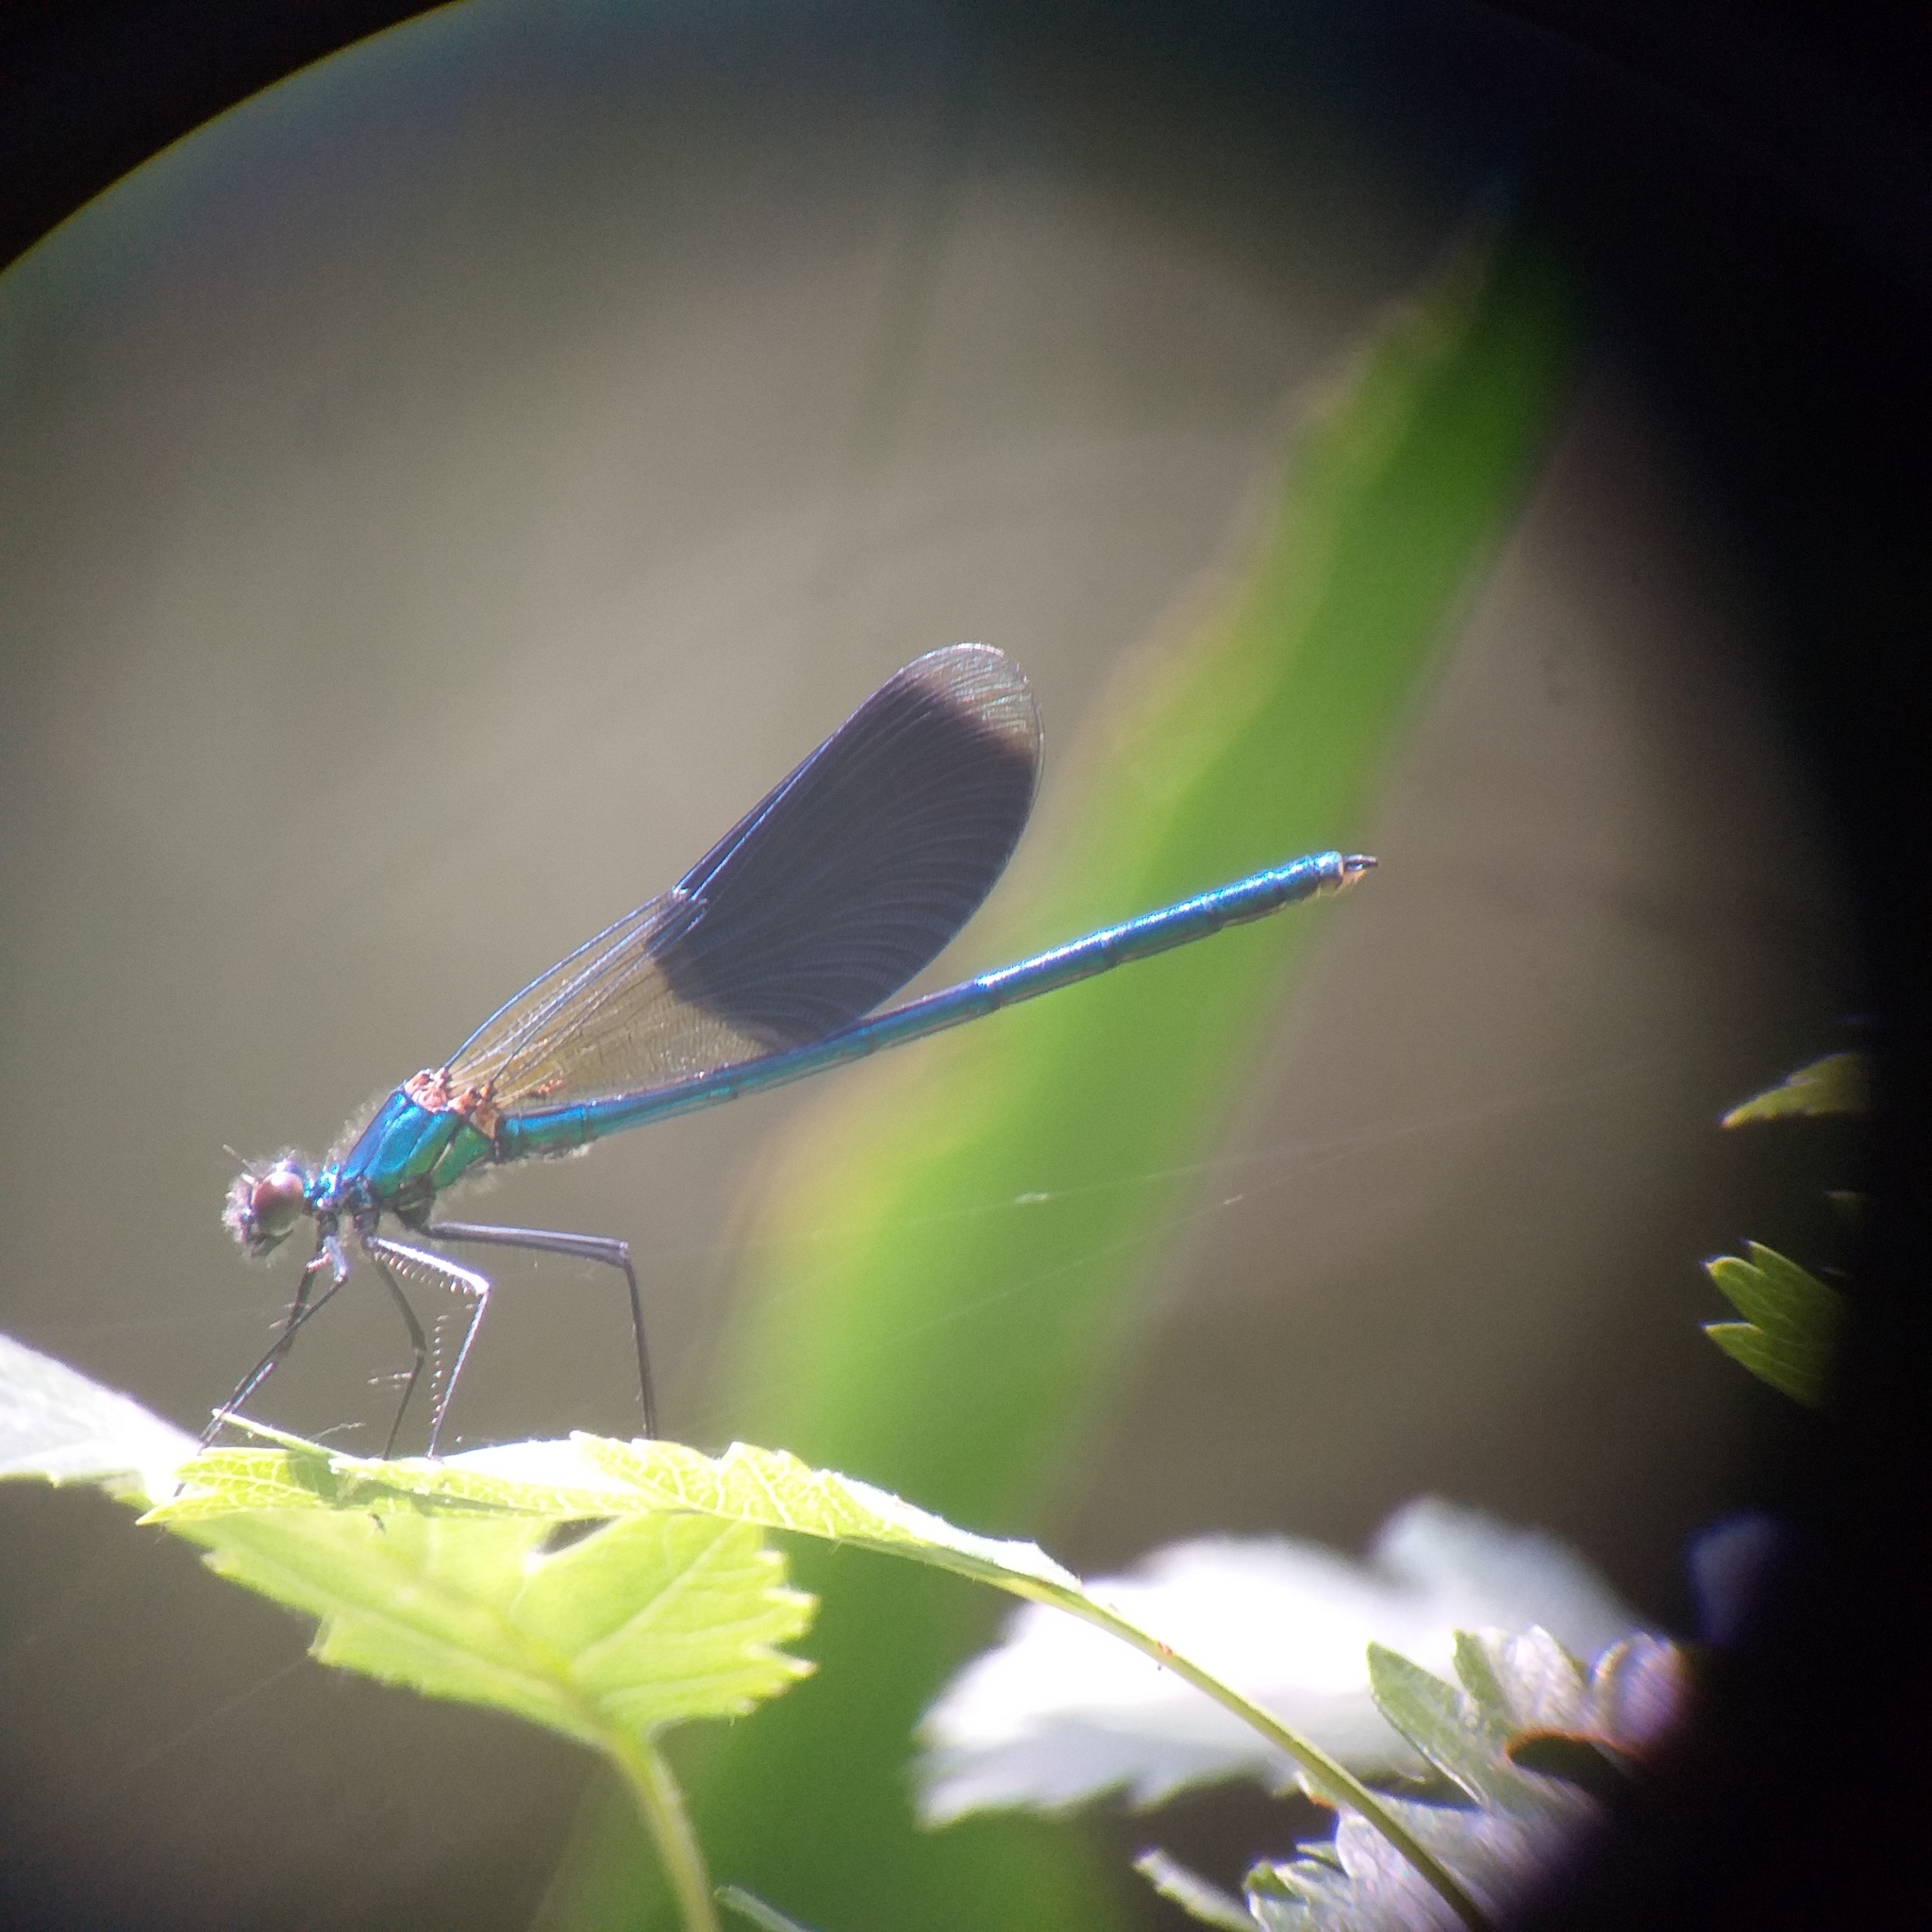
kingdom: Animalia
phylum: Arthropoda
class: Insecta
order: Odonata
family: Calopterygidae
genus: Calopteryx
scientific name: Calopteryx splendens
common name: Banded demoiselle
